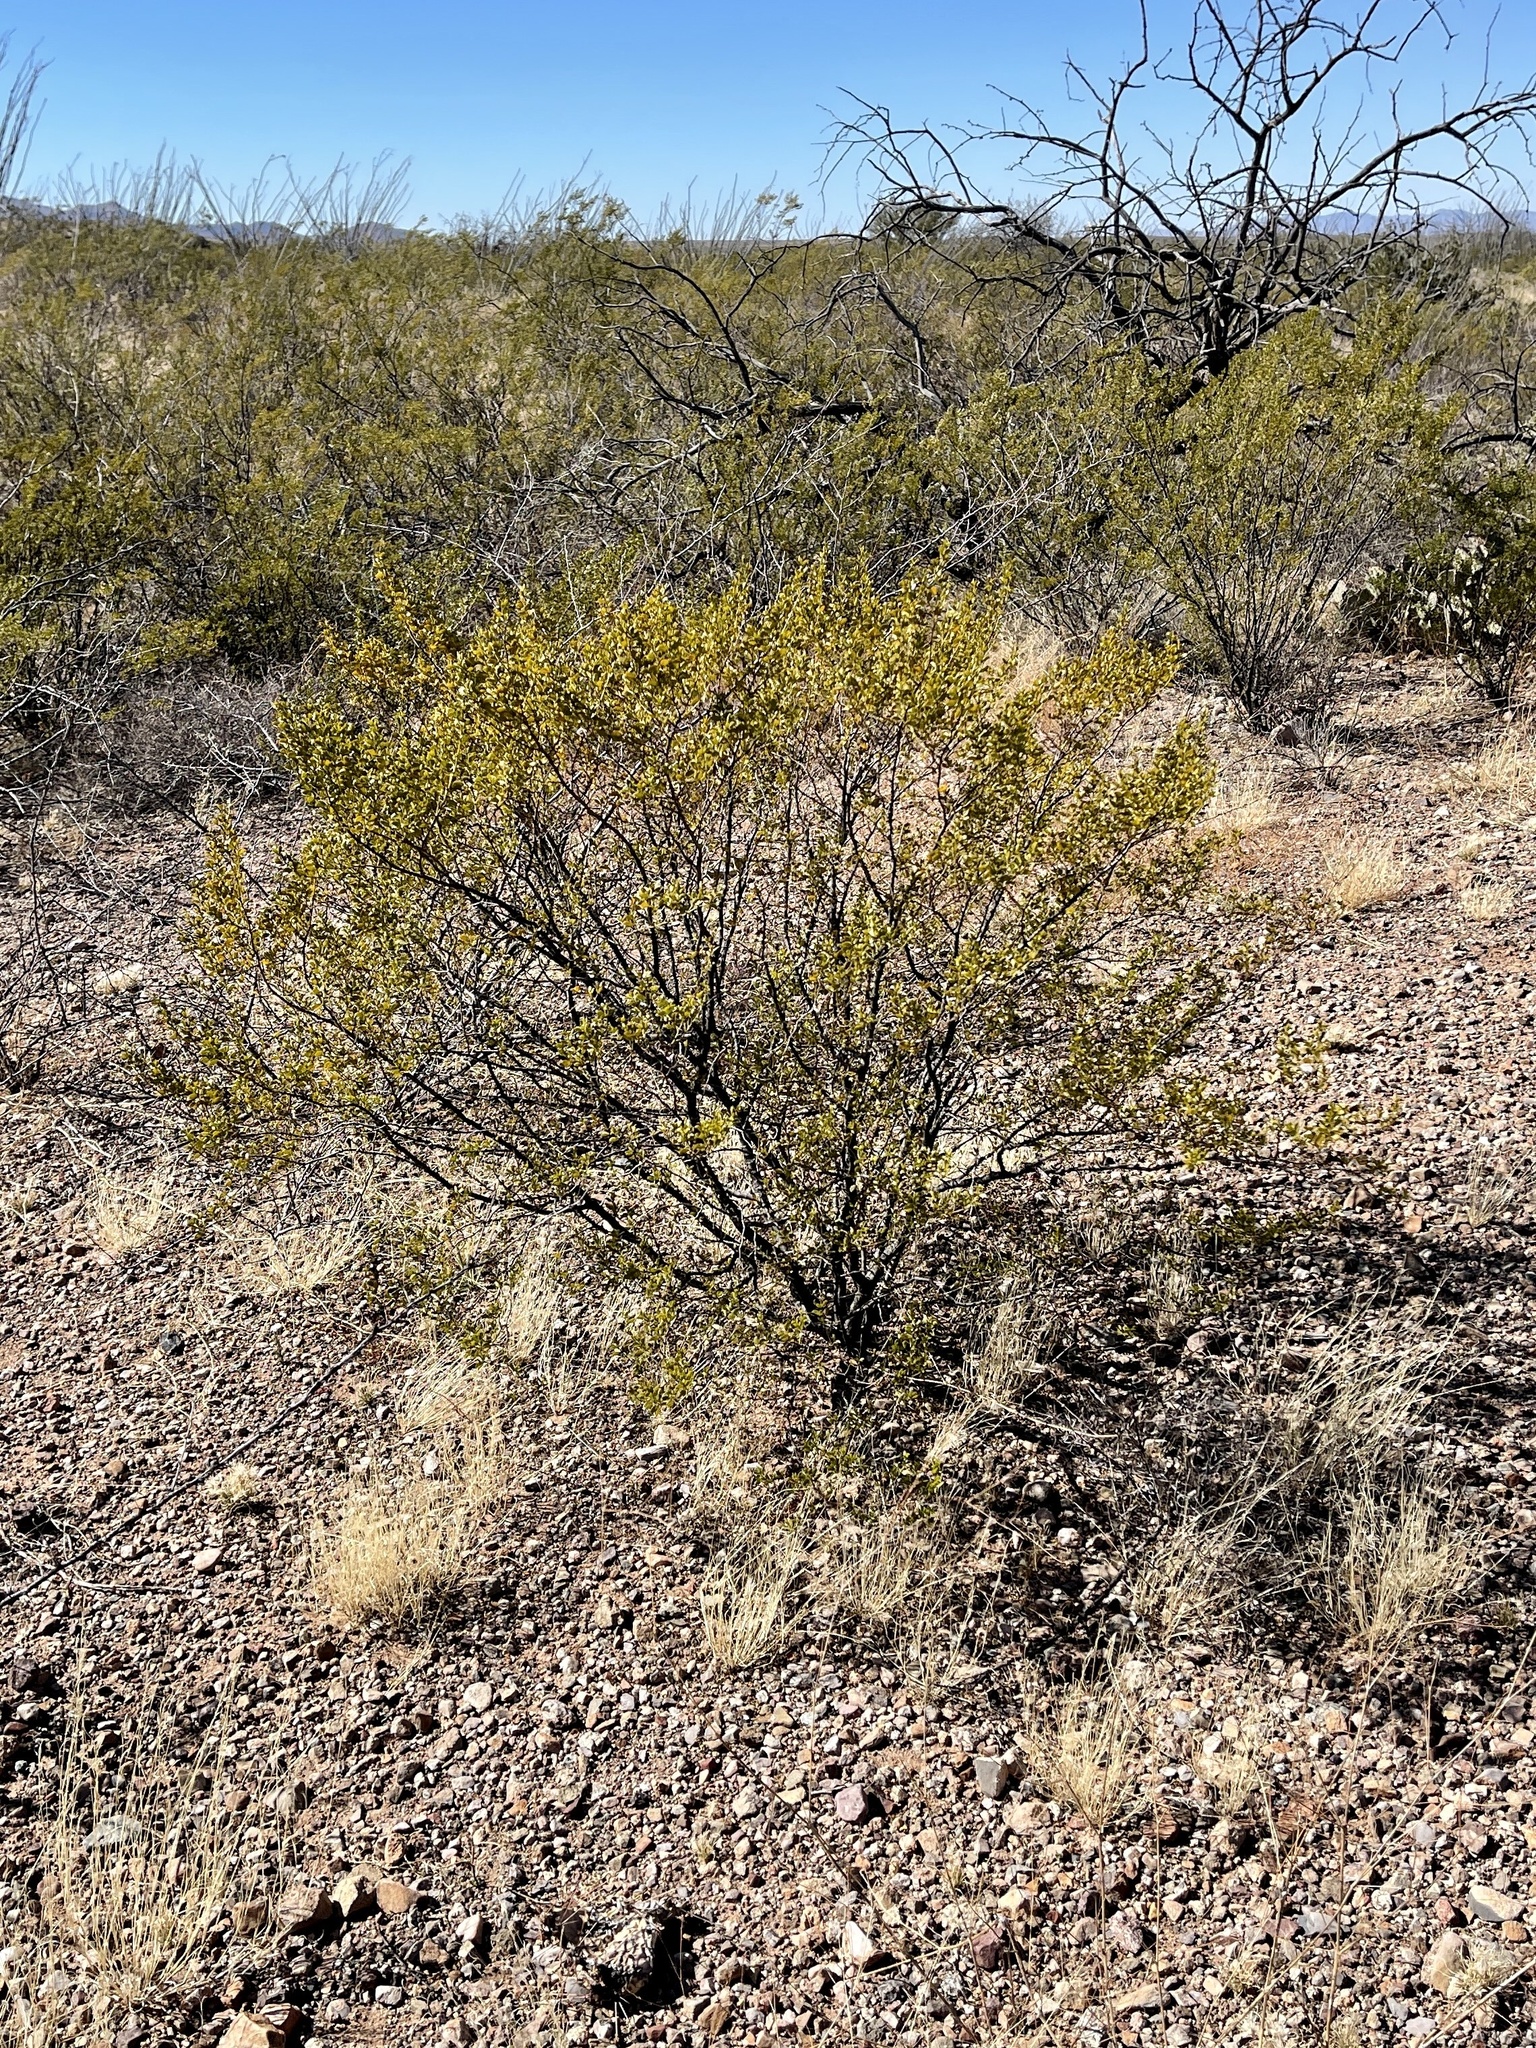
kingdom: Plantae
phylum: Tracheophyta
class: Magnoliopsida
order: Zygophyllales
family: Zygophyllaceae
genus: Larrea
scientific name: Larrea tridentata
